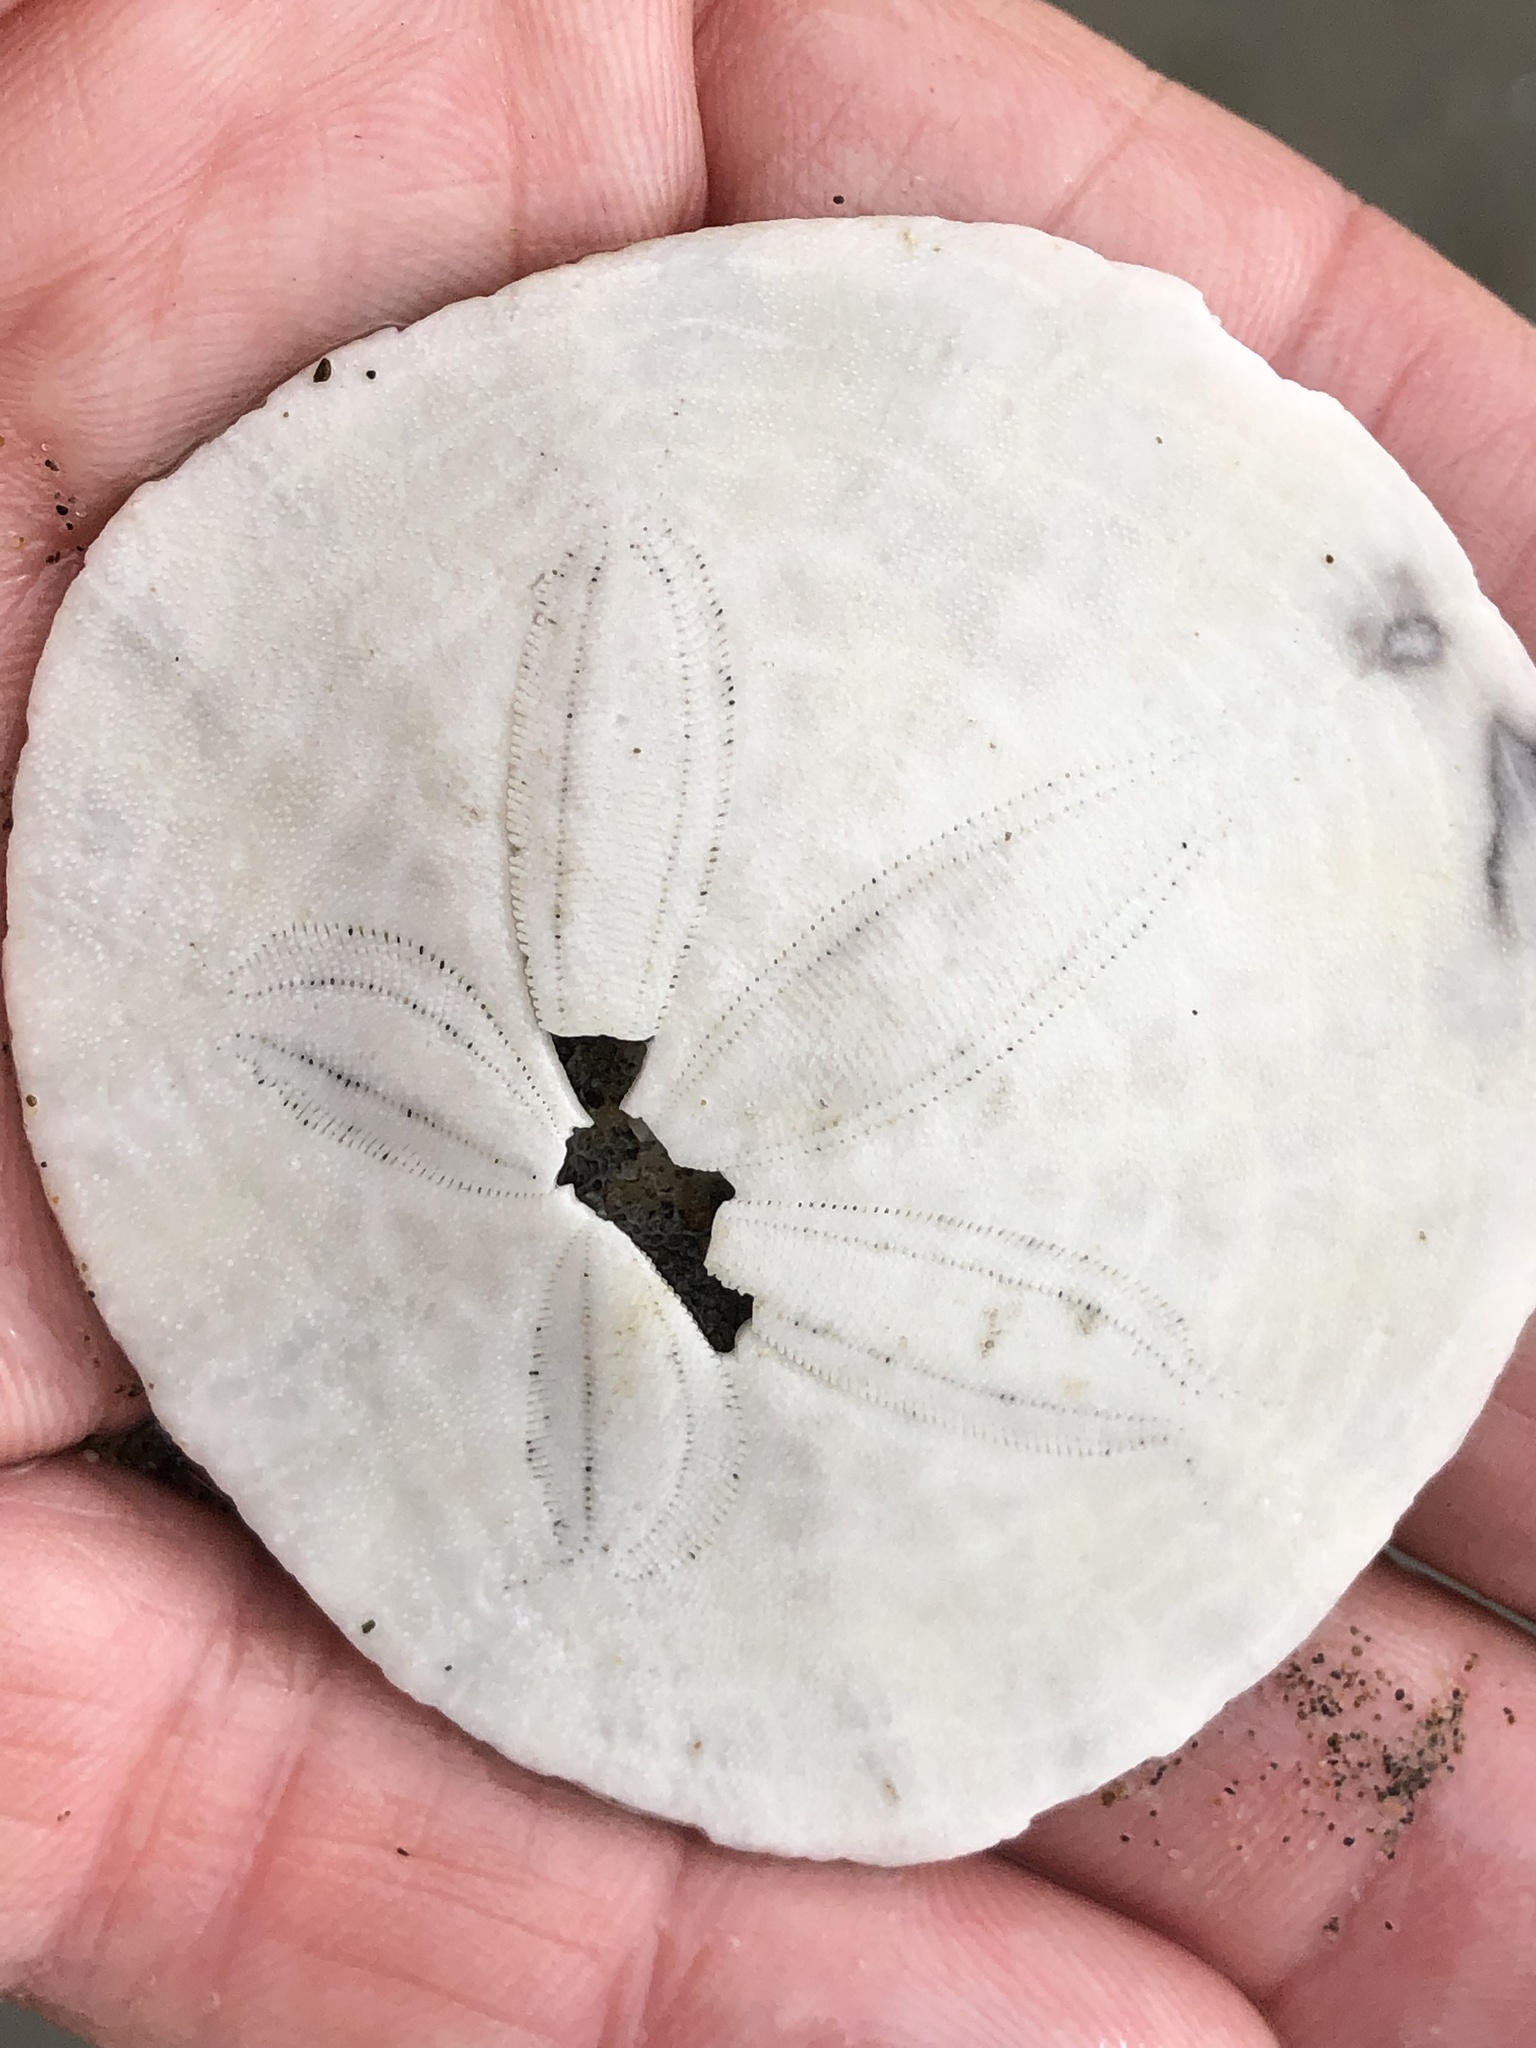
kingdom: Animalia
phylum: Echinodermata
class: Echinoidea
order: Echinolampadacea
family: Dendrasteridae
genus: Dendraster
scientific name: Dendraster excentricus
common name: Eccentric sand dollar sea urchin
